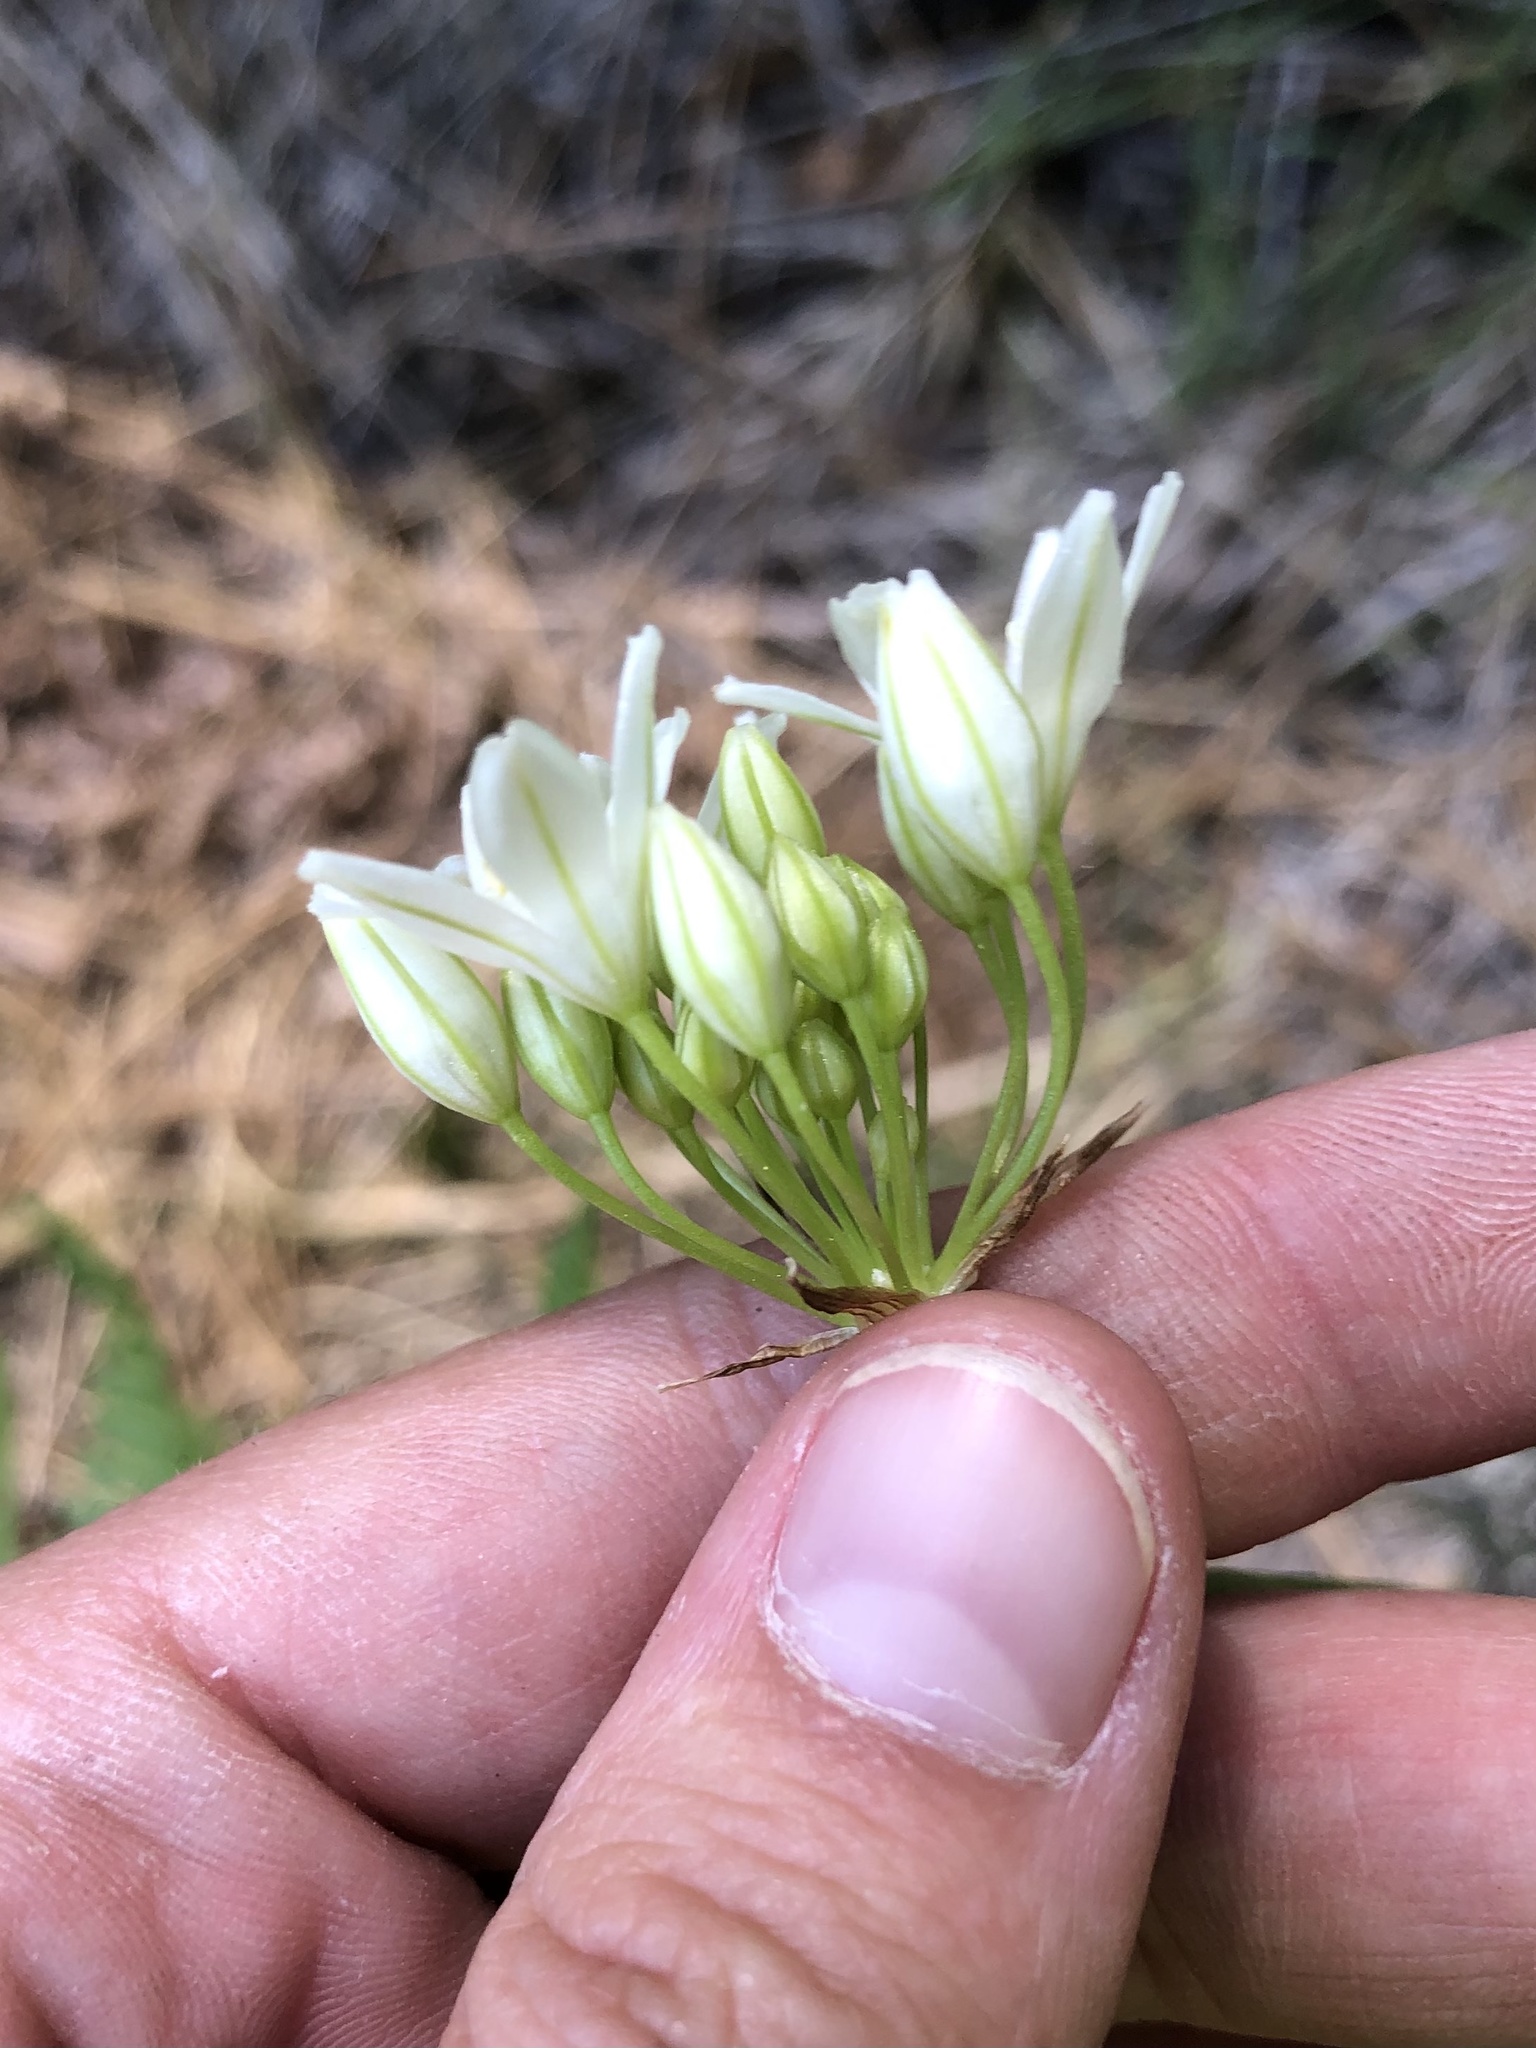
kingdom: Plantae
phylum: Tracheophyta
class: Liliopsida
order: Asparagales
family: Asparagaceae
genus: Triteleia
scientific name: Triteleia hyacinthina
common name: White brodiaea
